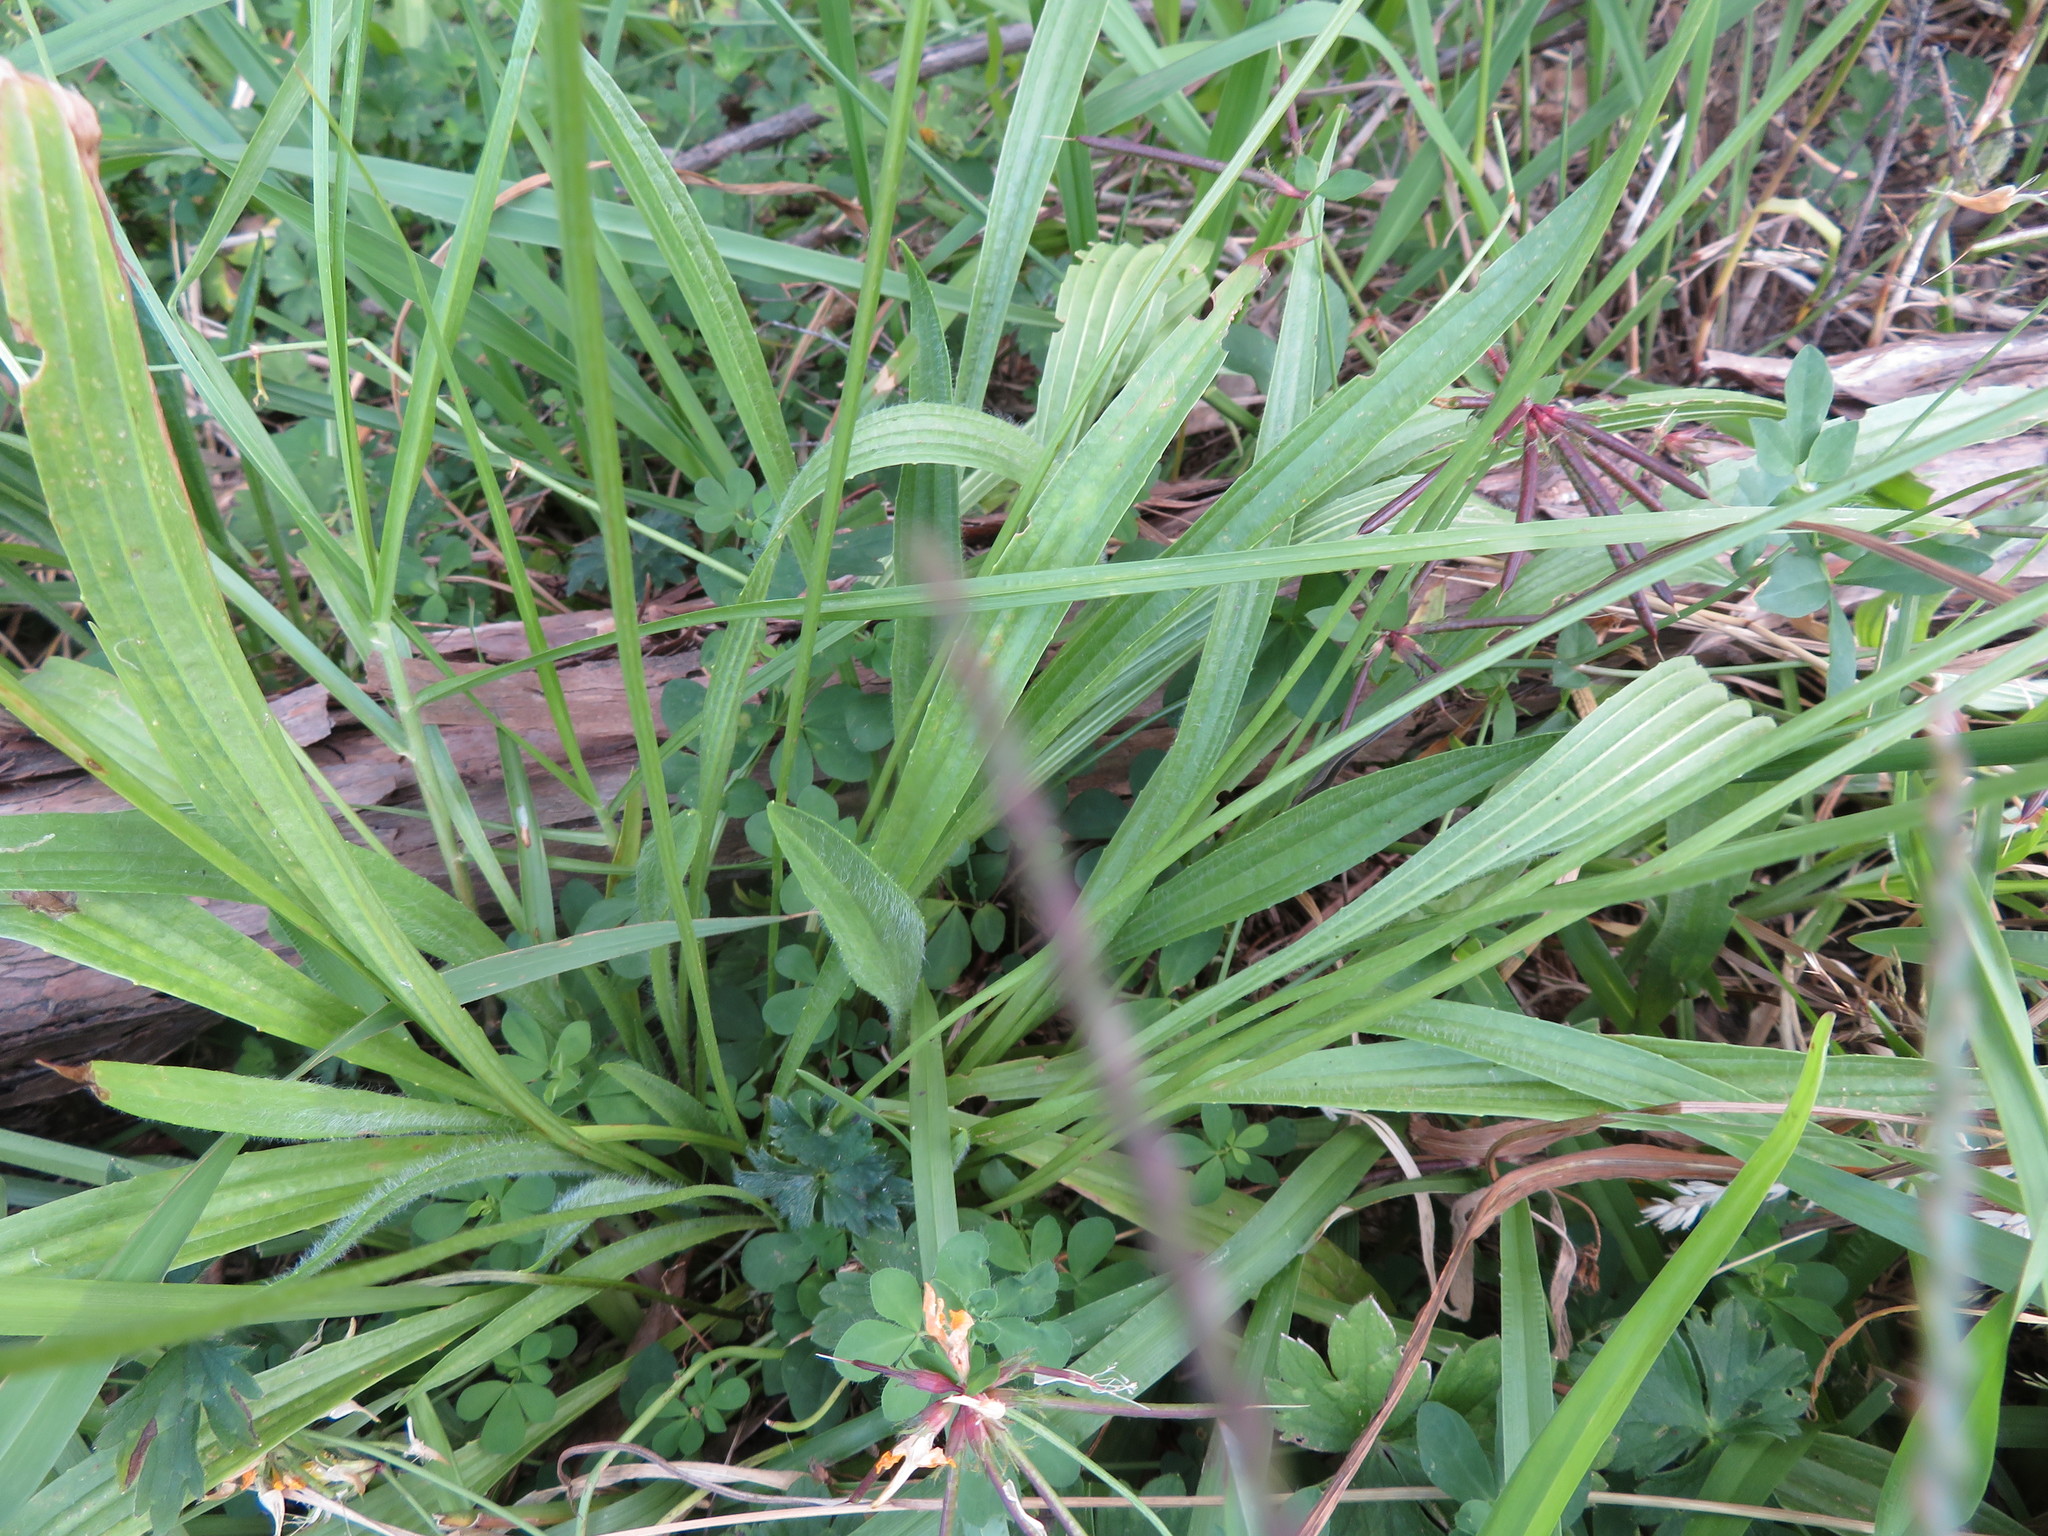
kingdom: Plantae
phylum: Tracheophyta
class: Magnoliopsida
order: Lamiales
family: Plantaginaceae
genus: Plantago
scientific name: Plantago lanceolata
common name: Ribwort plantain
